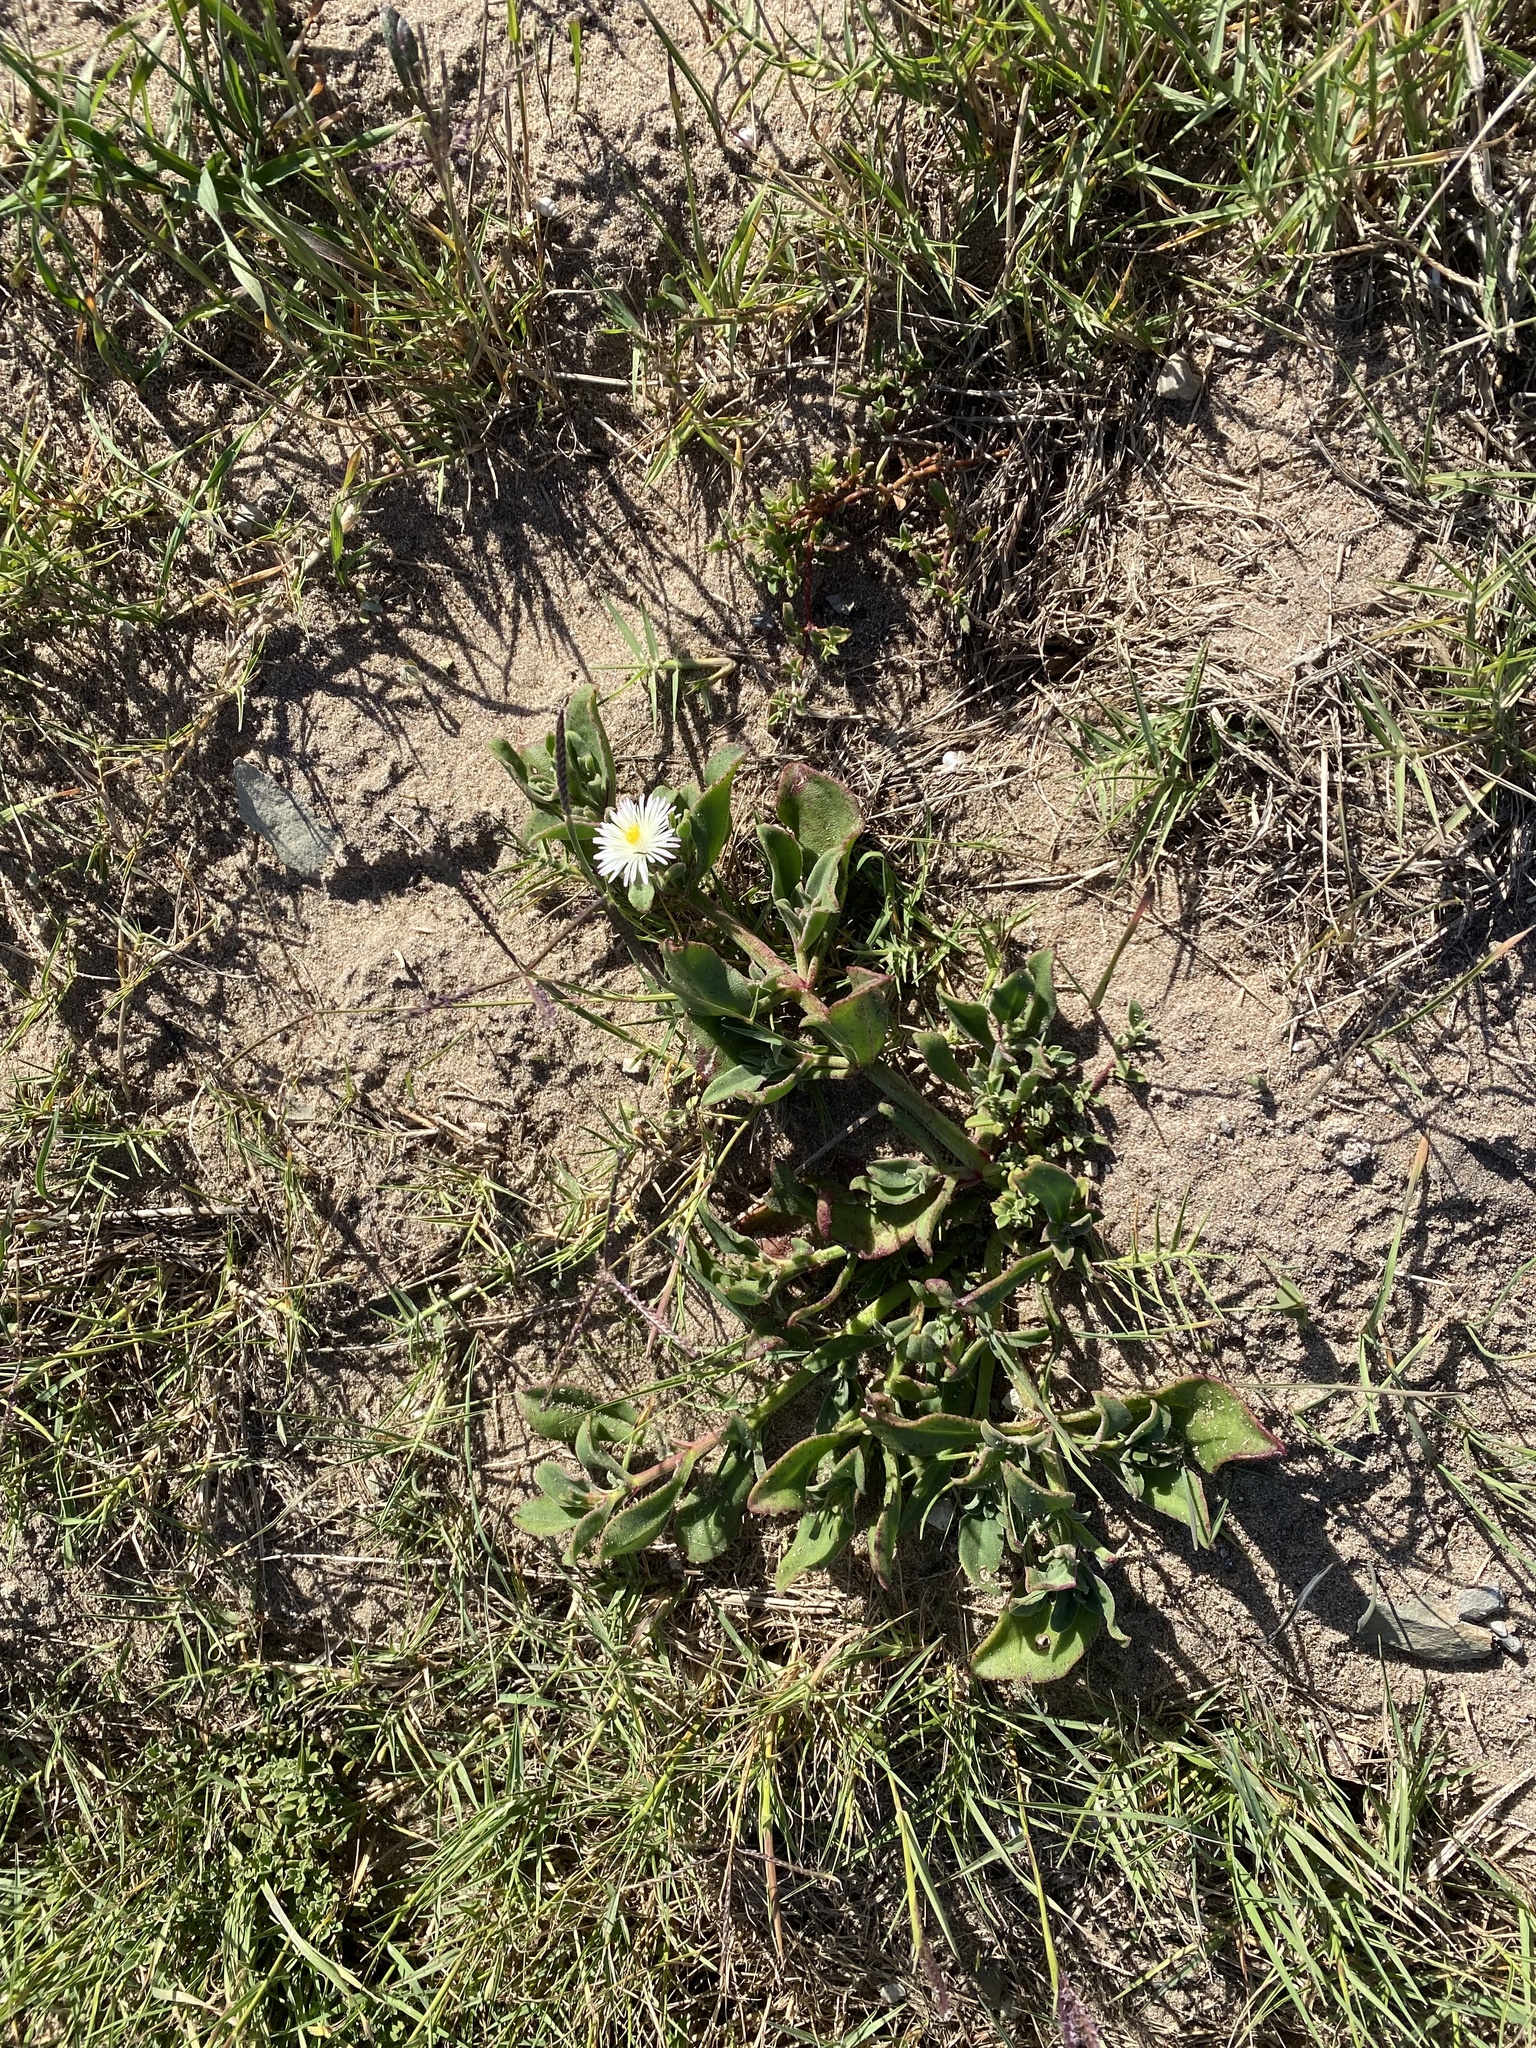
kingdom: Plantae
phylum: Tracheophyta
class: Magnoliopsida
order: Caryophyllales
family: Aizoaceae
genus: Mesembryanthemum
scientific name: Mesembryanthemum aitonis
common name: Angled iceplant
